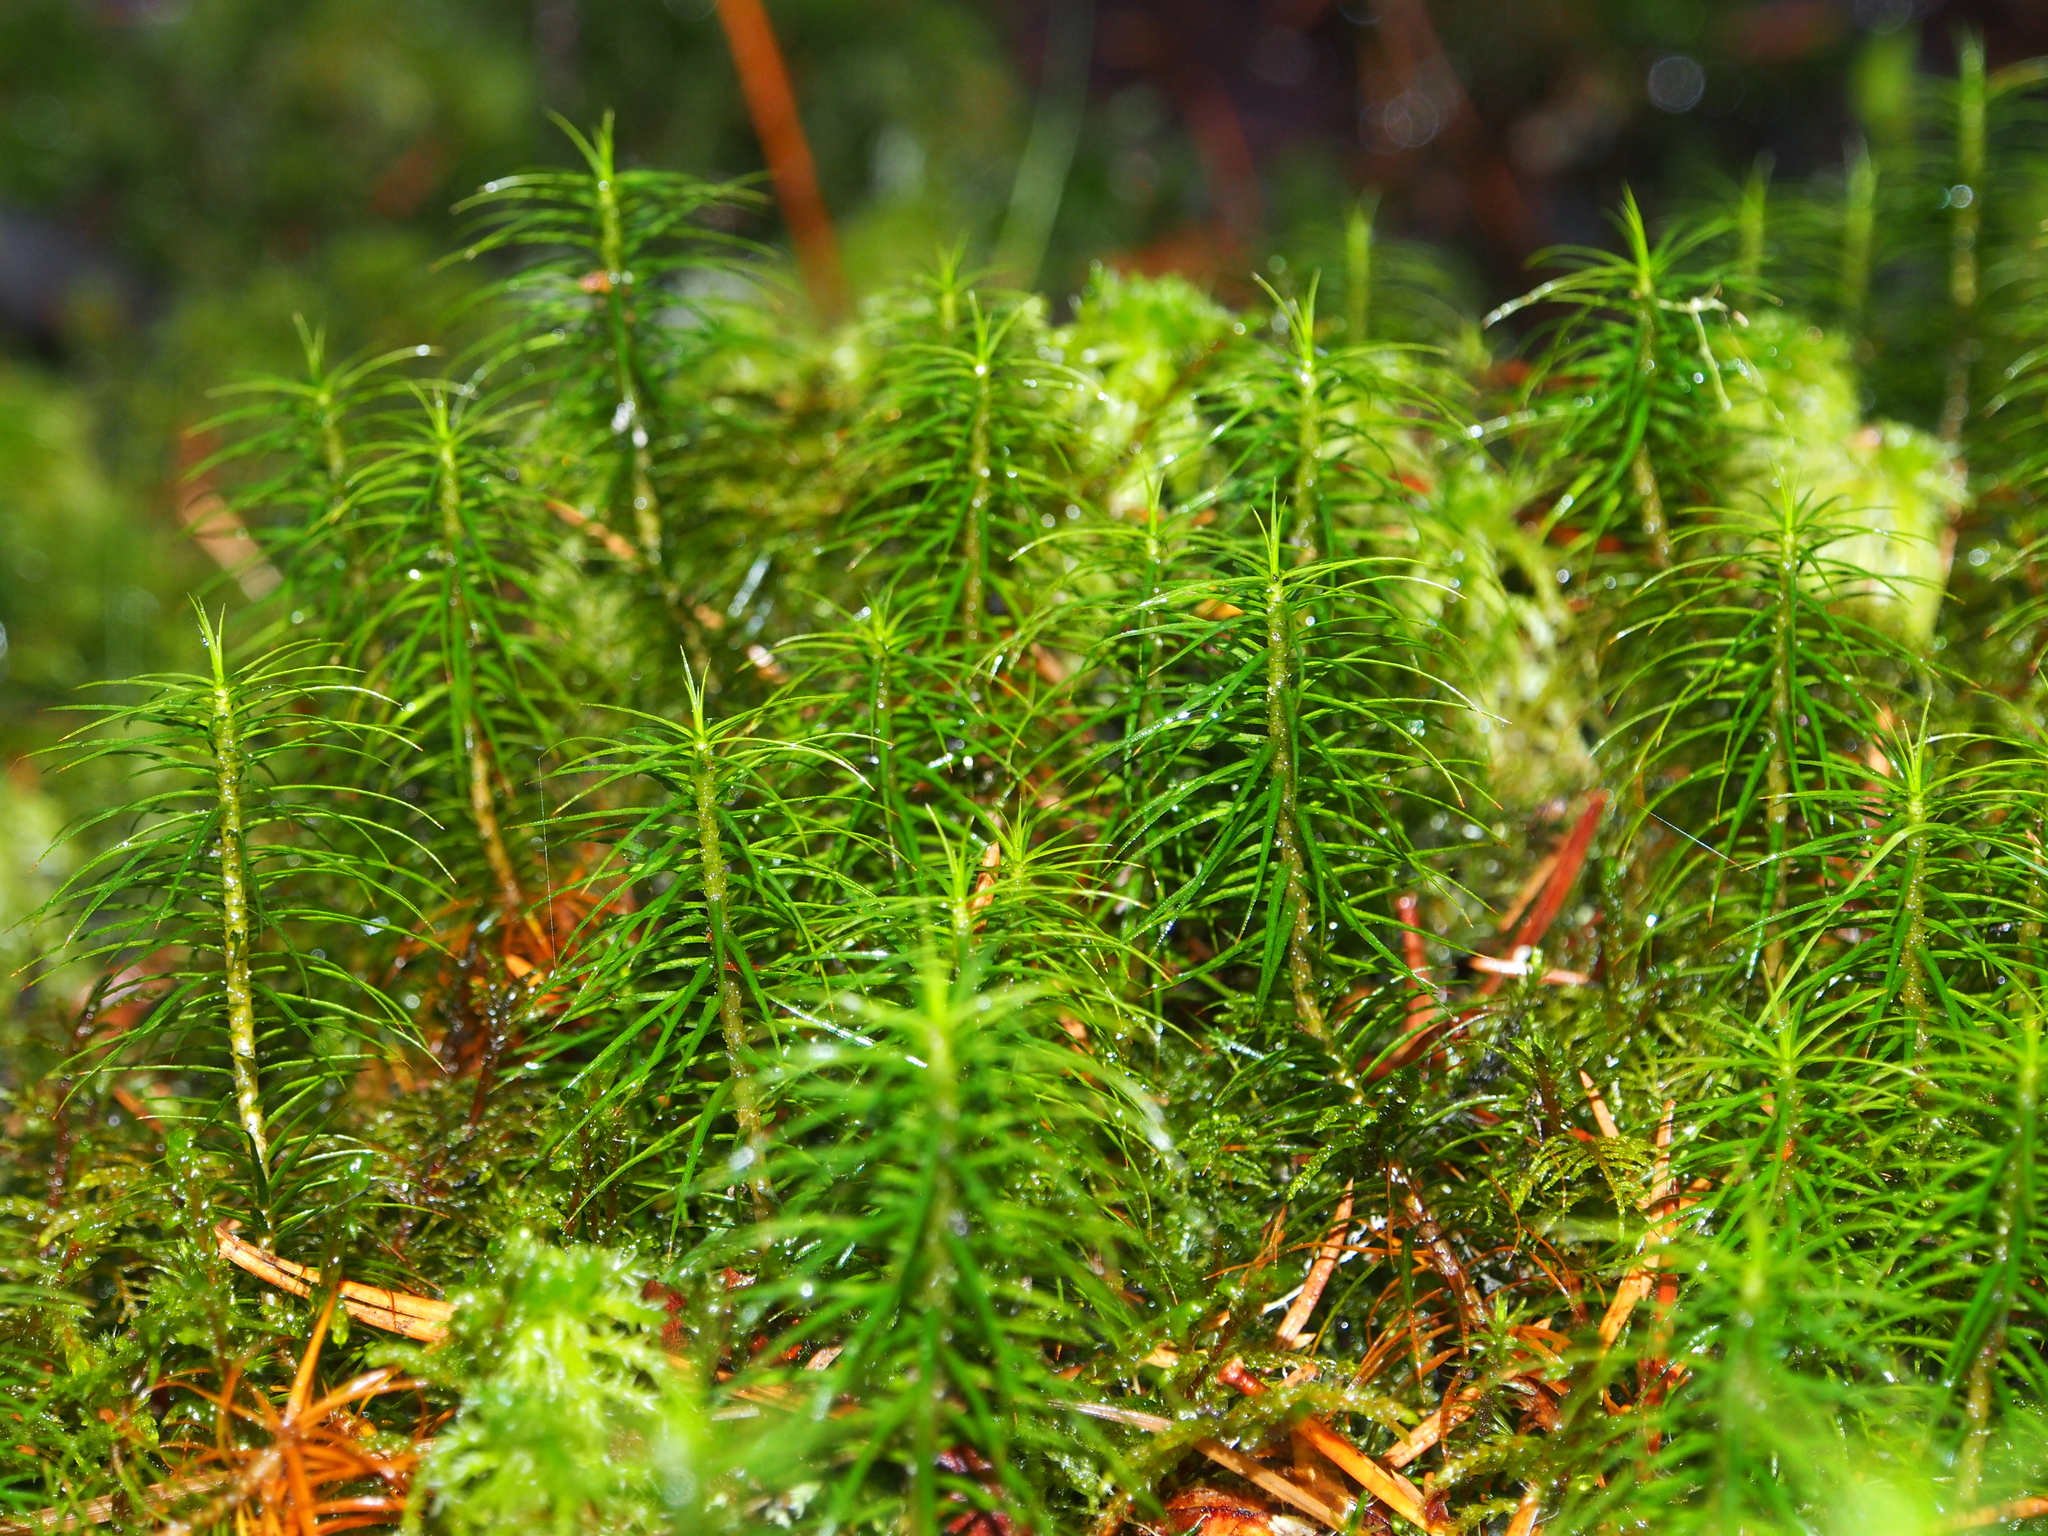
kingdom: Plantae
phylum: Bryophyta
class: Polytrichopsida
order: Polytrichales
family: Polytrichaceae
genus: Polytrichum
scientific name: Polytrichum commune
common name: Common haircap
